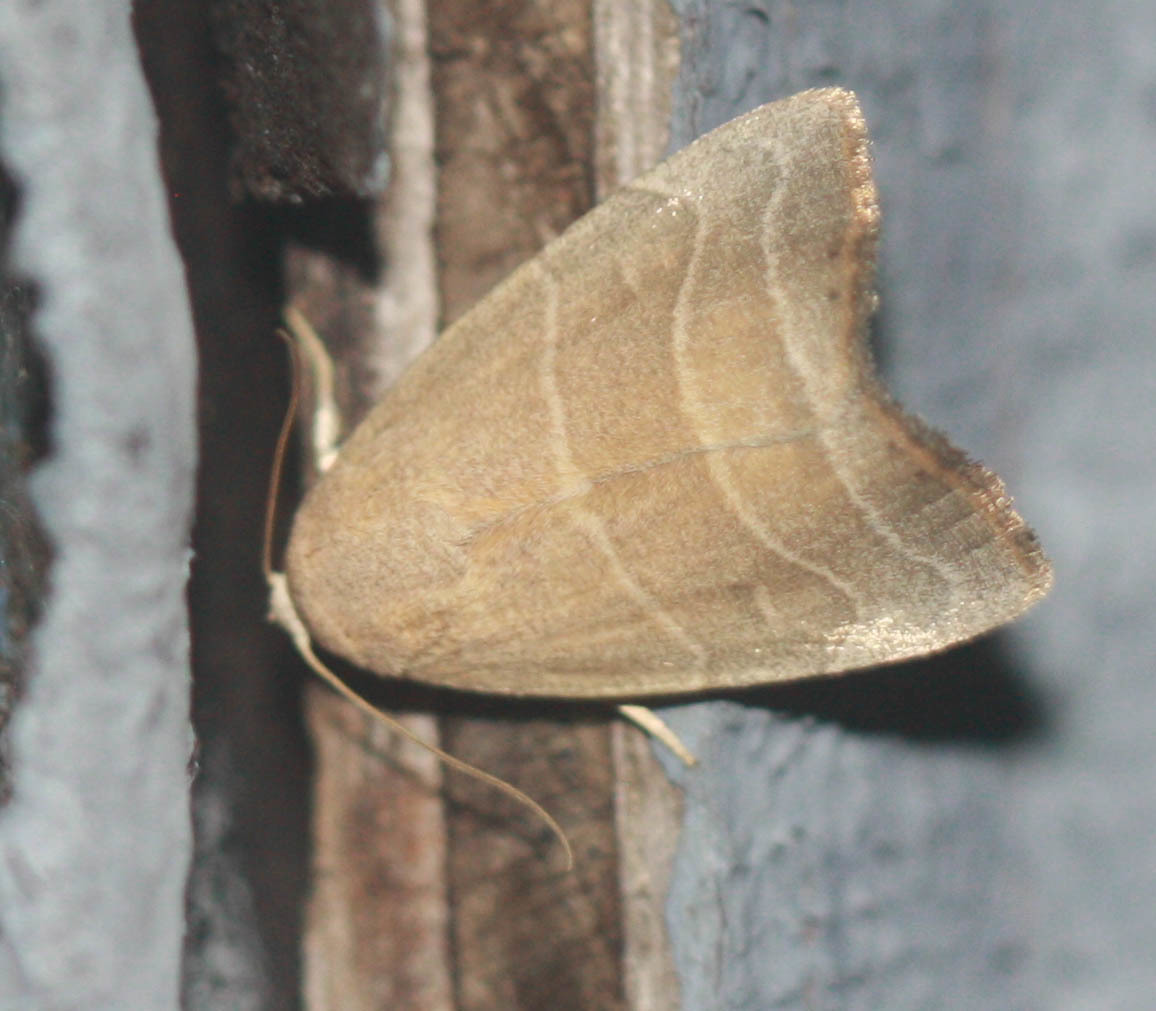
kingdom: Animalia
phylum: Arthropoda
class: Insecta
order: Lepidoptera
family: Noctuidae
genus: Bagisara
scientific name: Bagisara rectifascia
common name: Straight lined mallow moth
